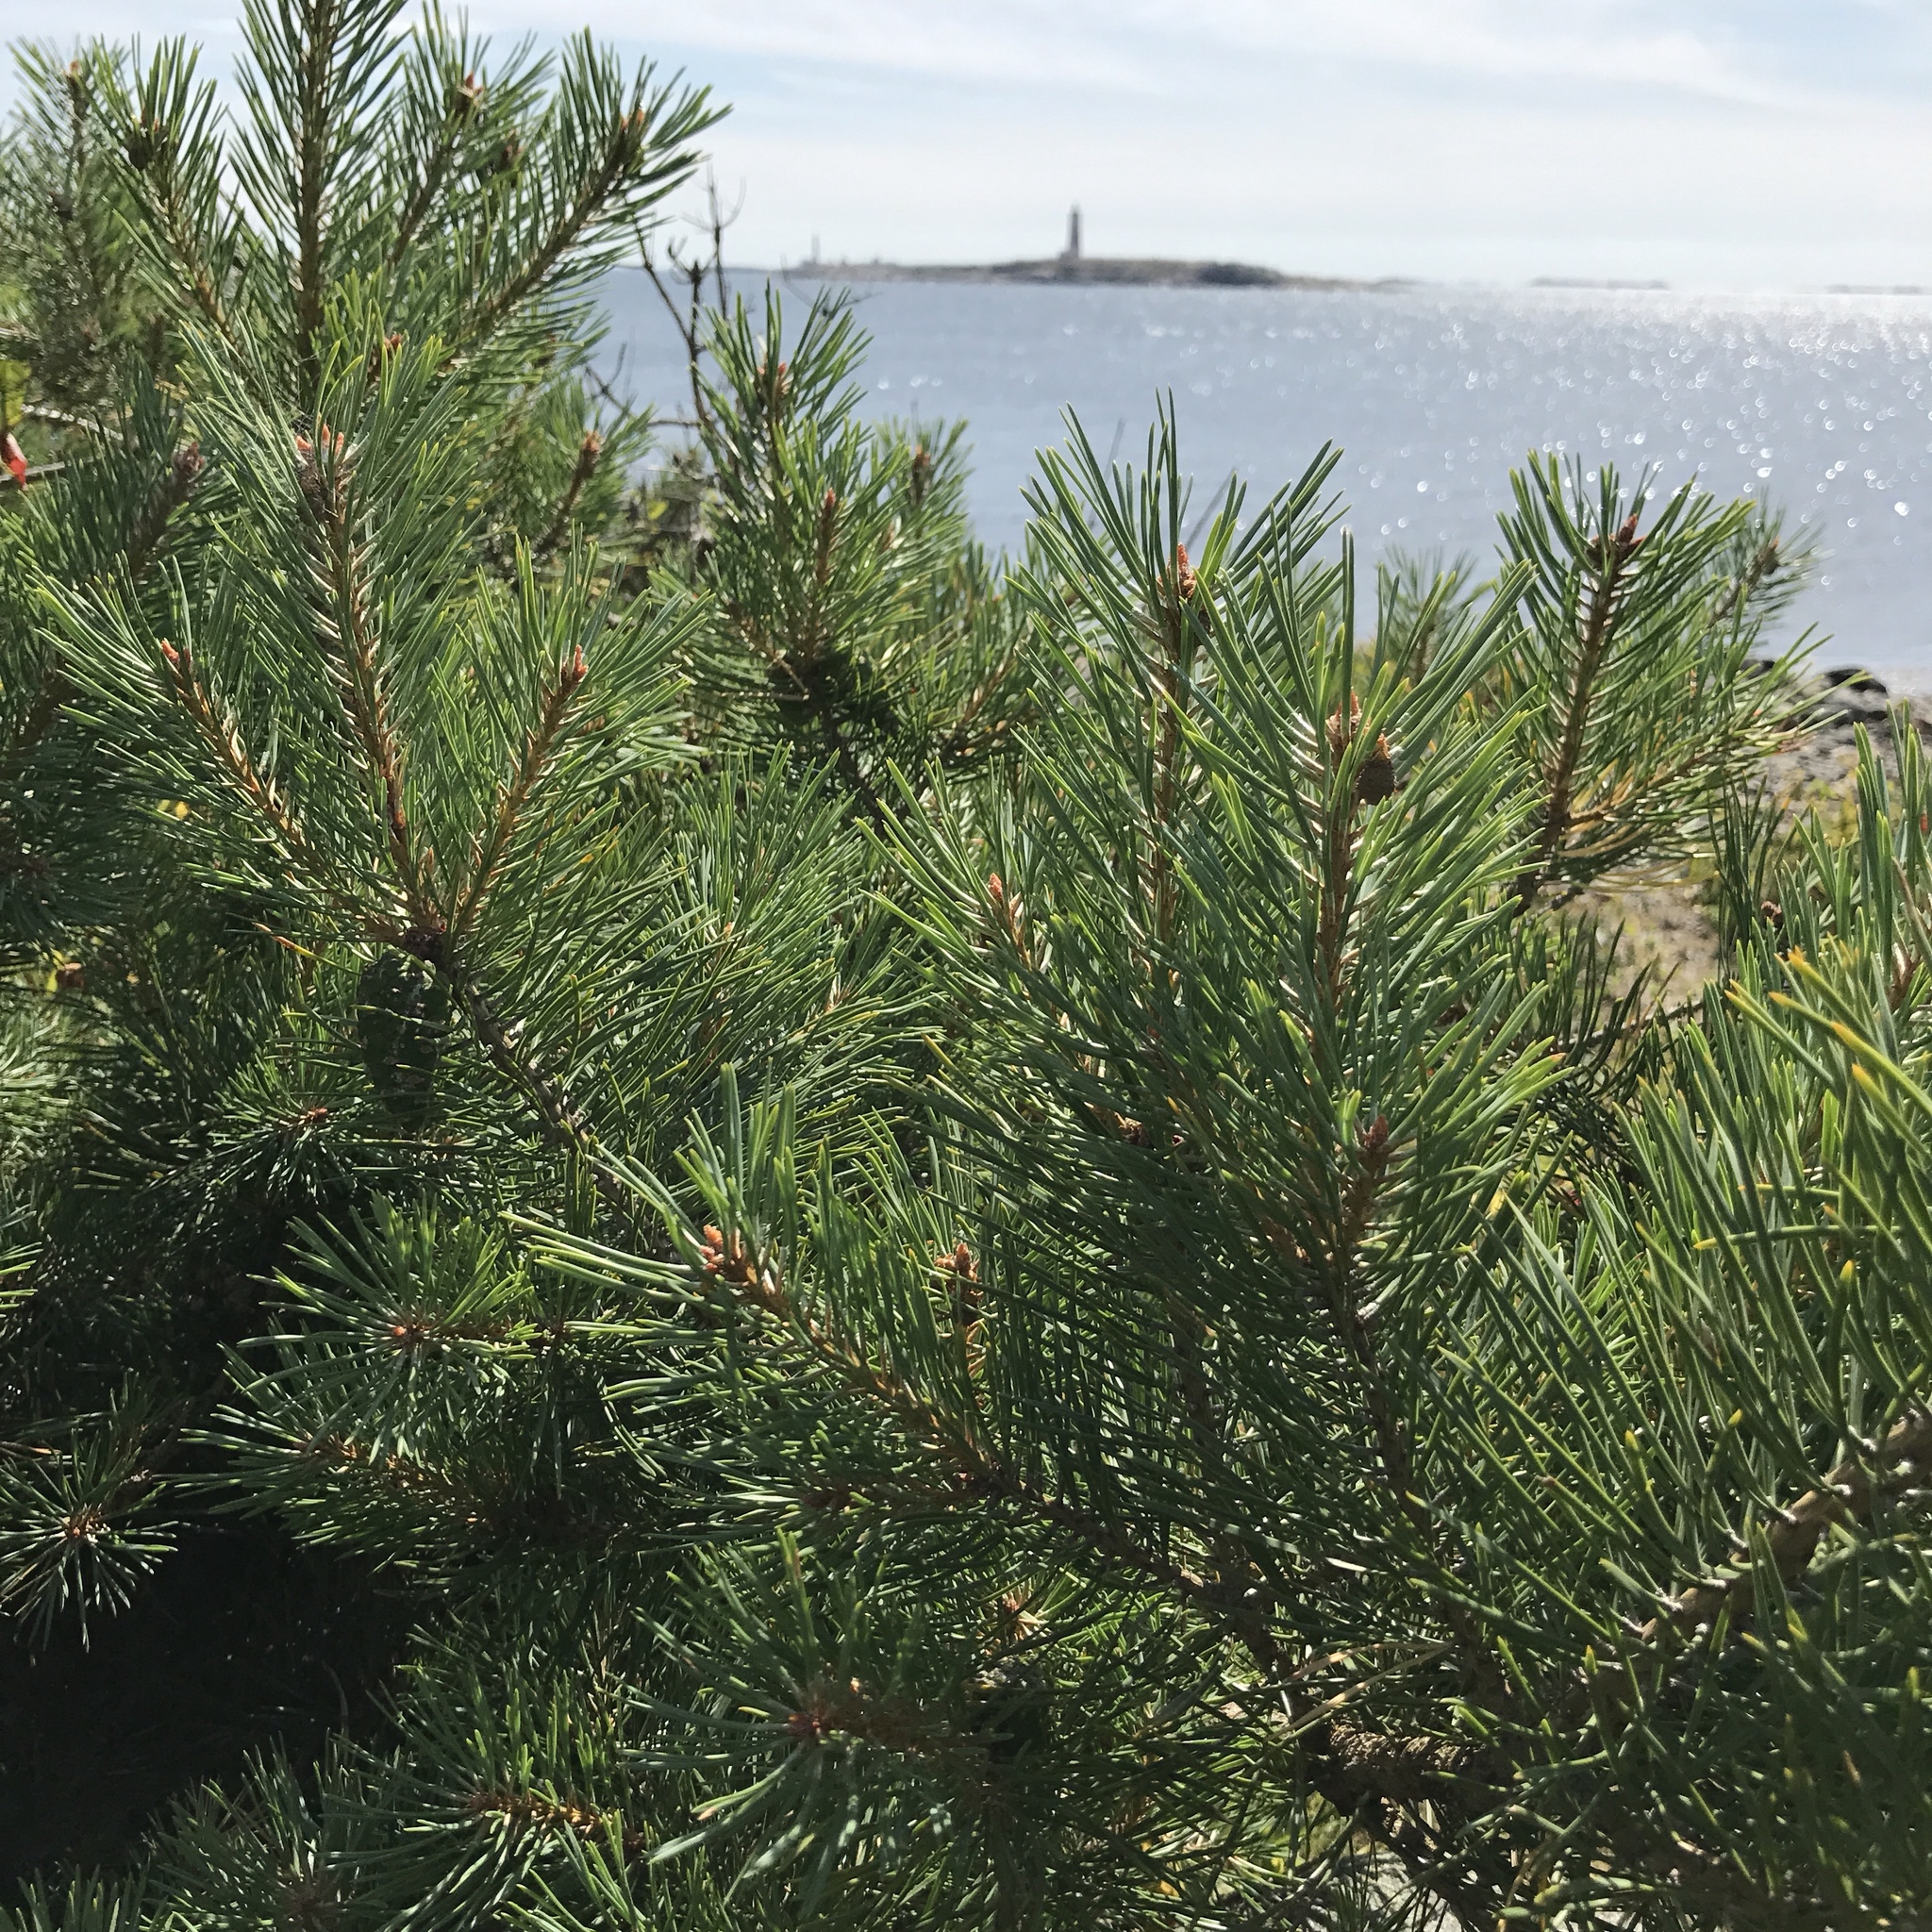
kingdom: Plantae
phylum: Tracheophyta
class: Pinopsida
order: Pinales
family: Pinaceae
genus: Pinus
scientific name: Pinus sylvestris
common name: Scots pine
